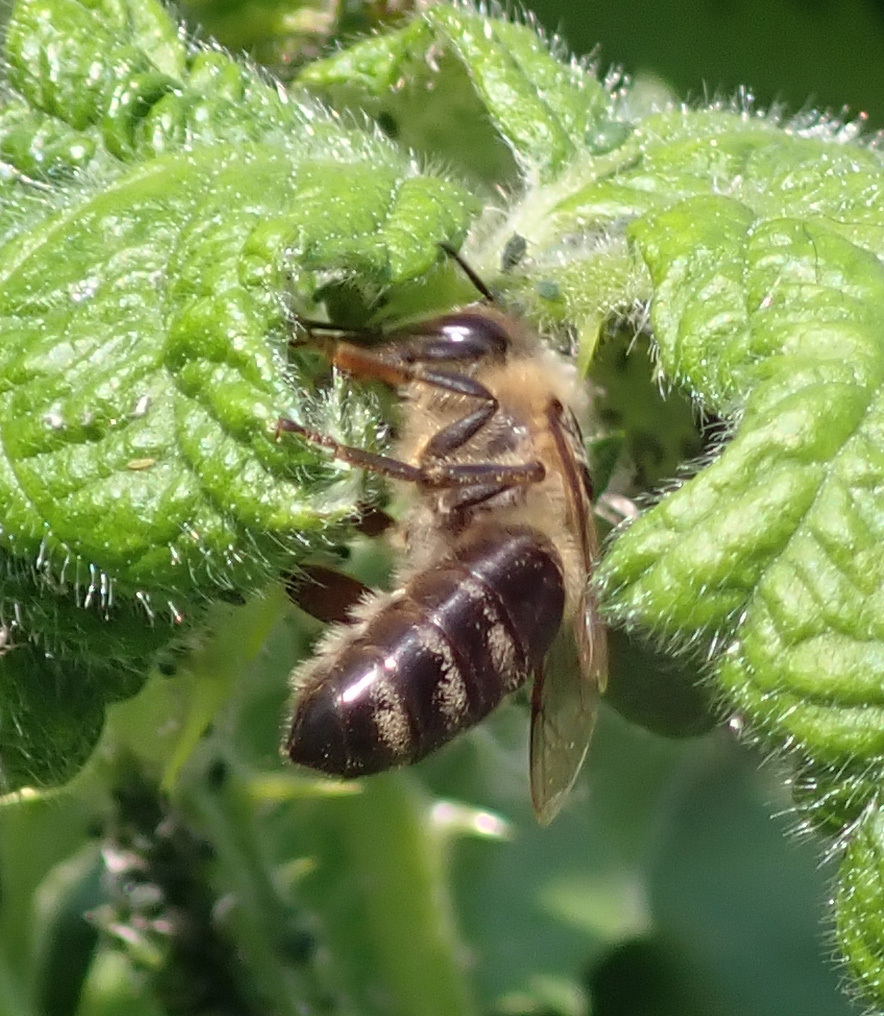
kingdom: Animalia
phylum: Arthropoda
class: Insecta
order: Hymenoptera
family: Apidae
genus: Apis
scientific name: Apis mellifera
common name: Honey bee
